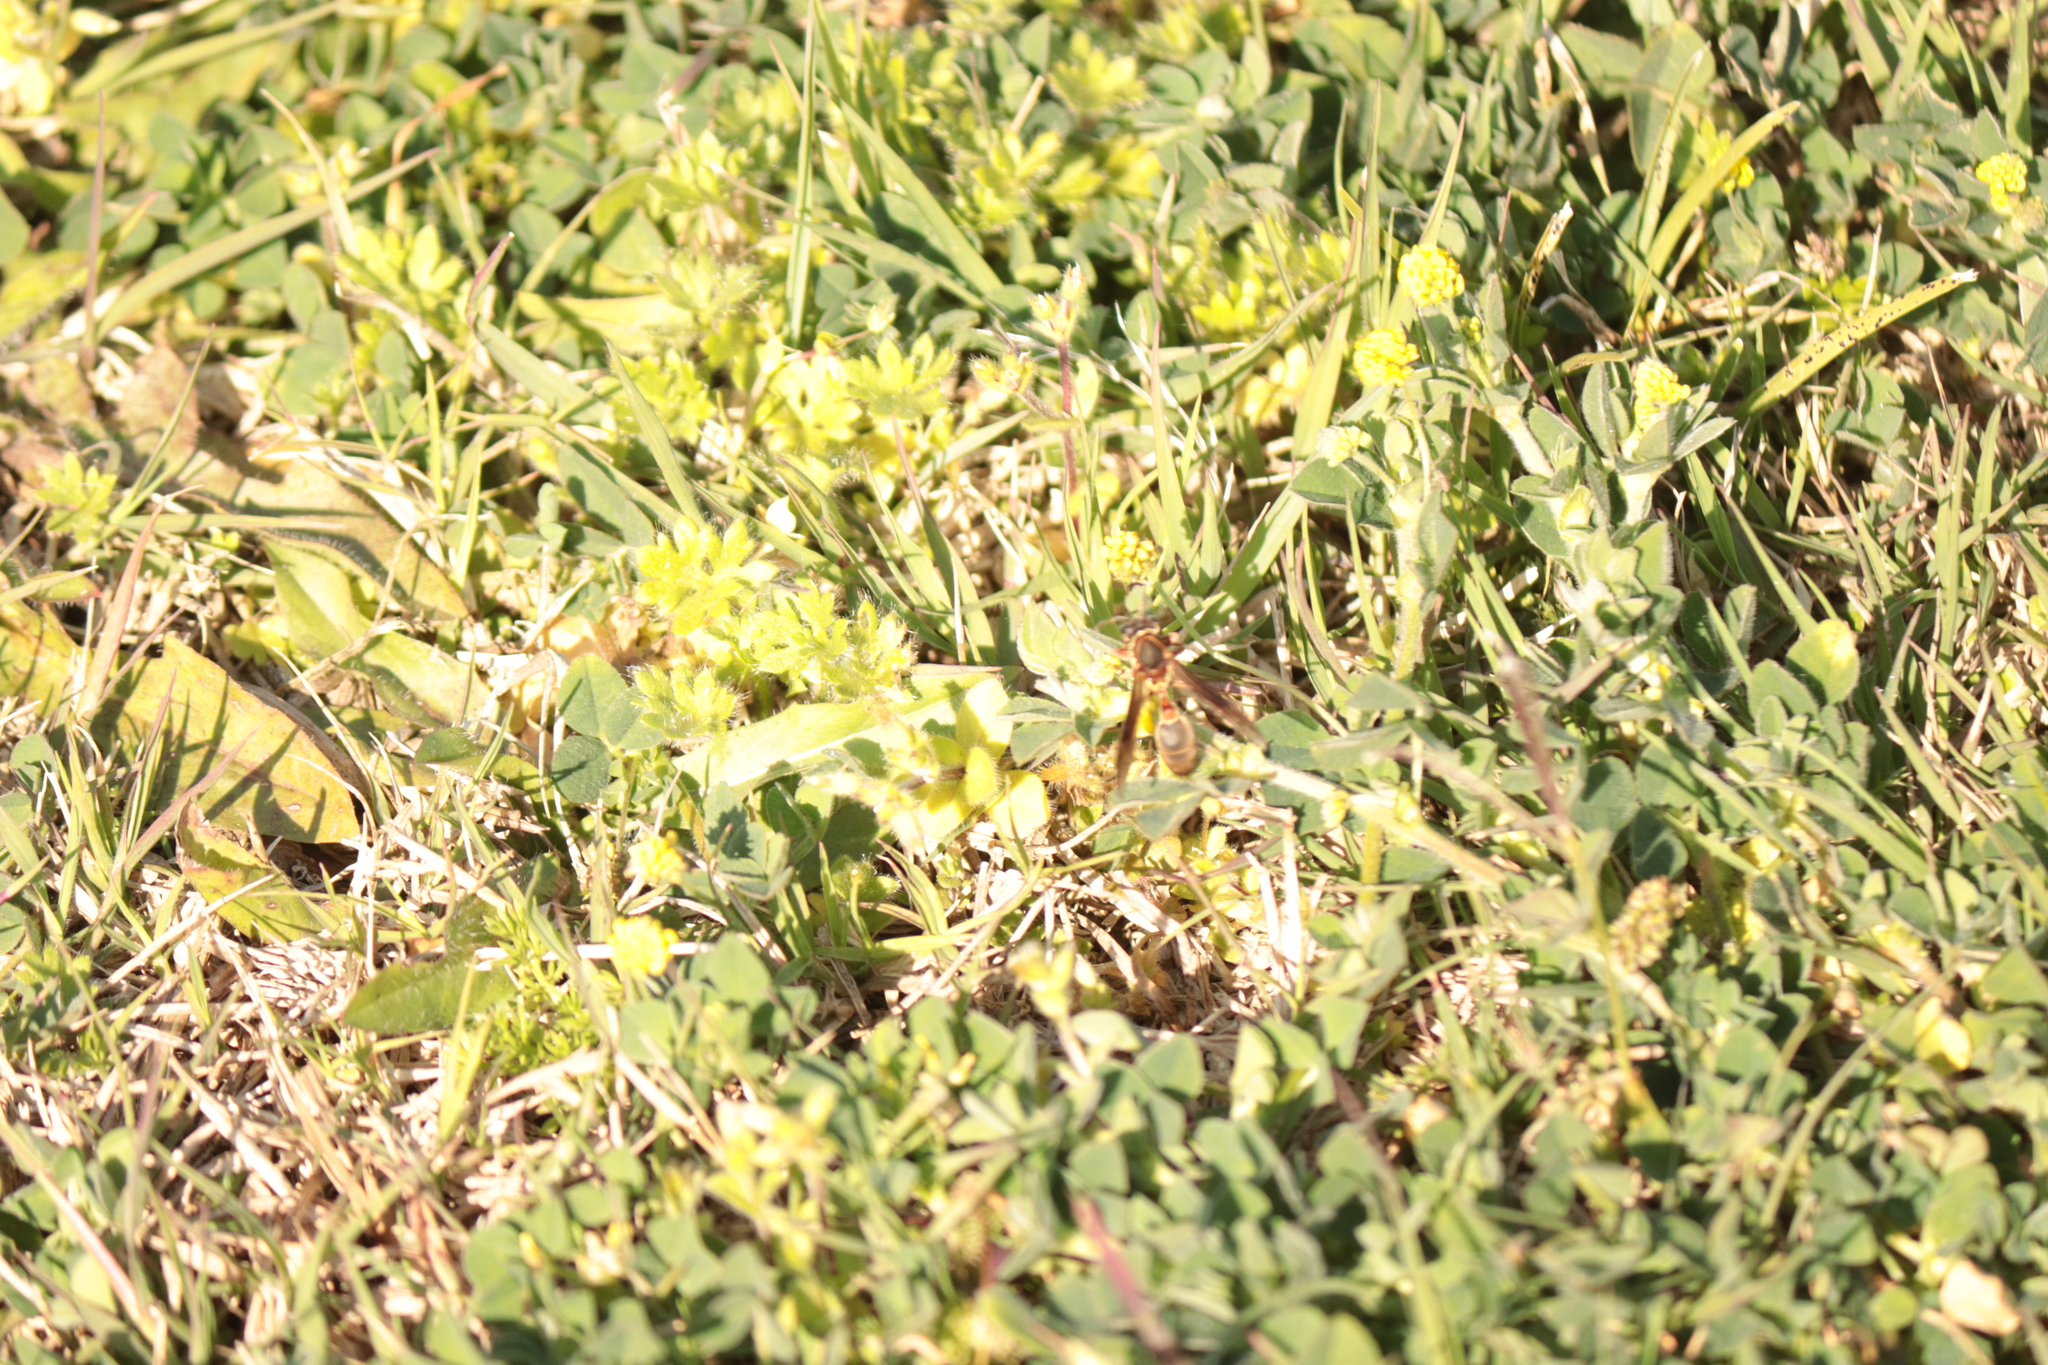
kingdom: Animalia
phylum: Arthropoda
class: Insecta
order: Hymenoptera
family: Eumenidae
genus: Polybia
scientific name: Polybia sericea
